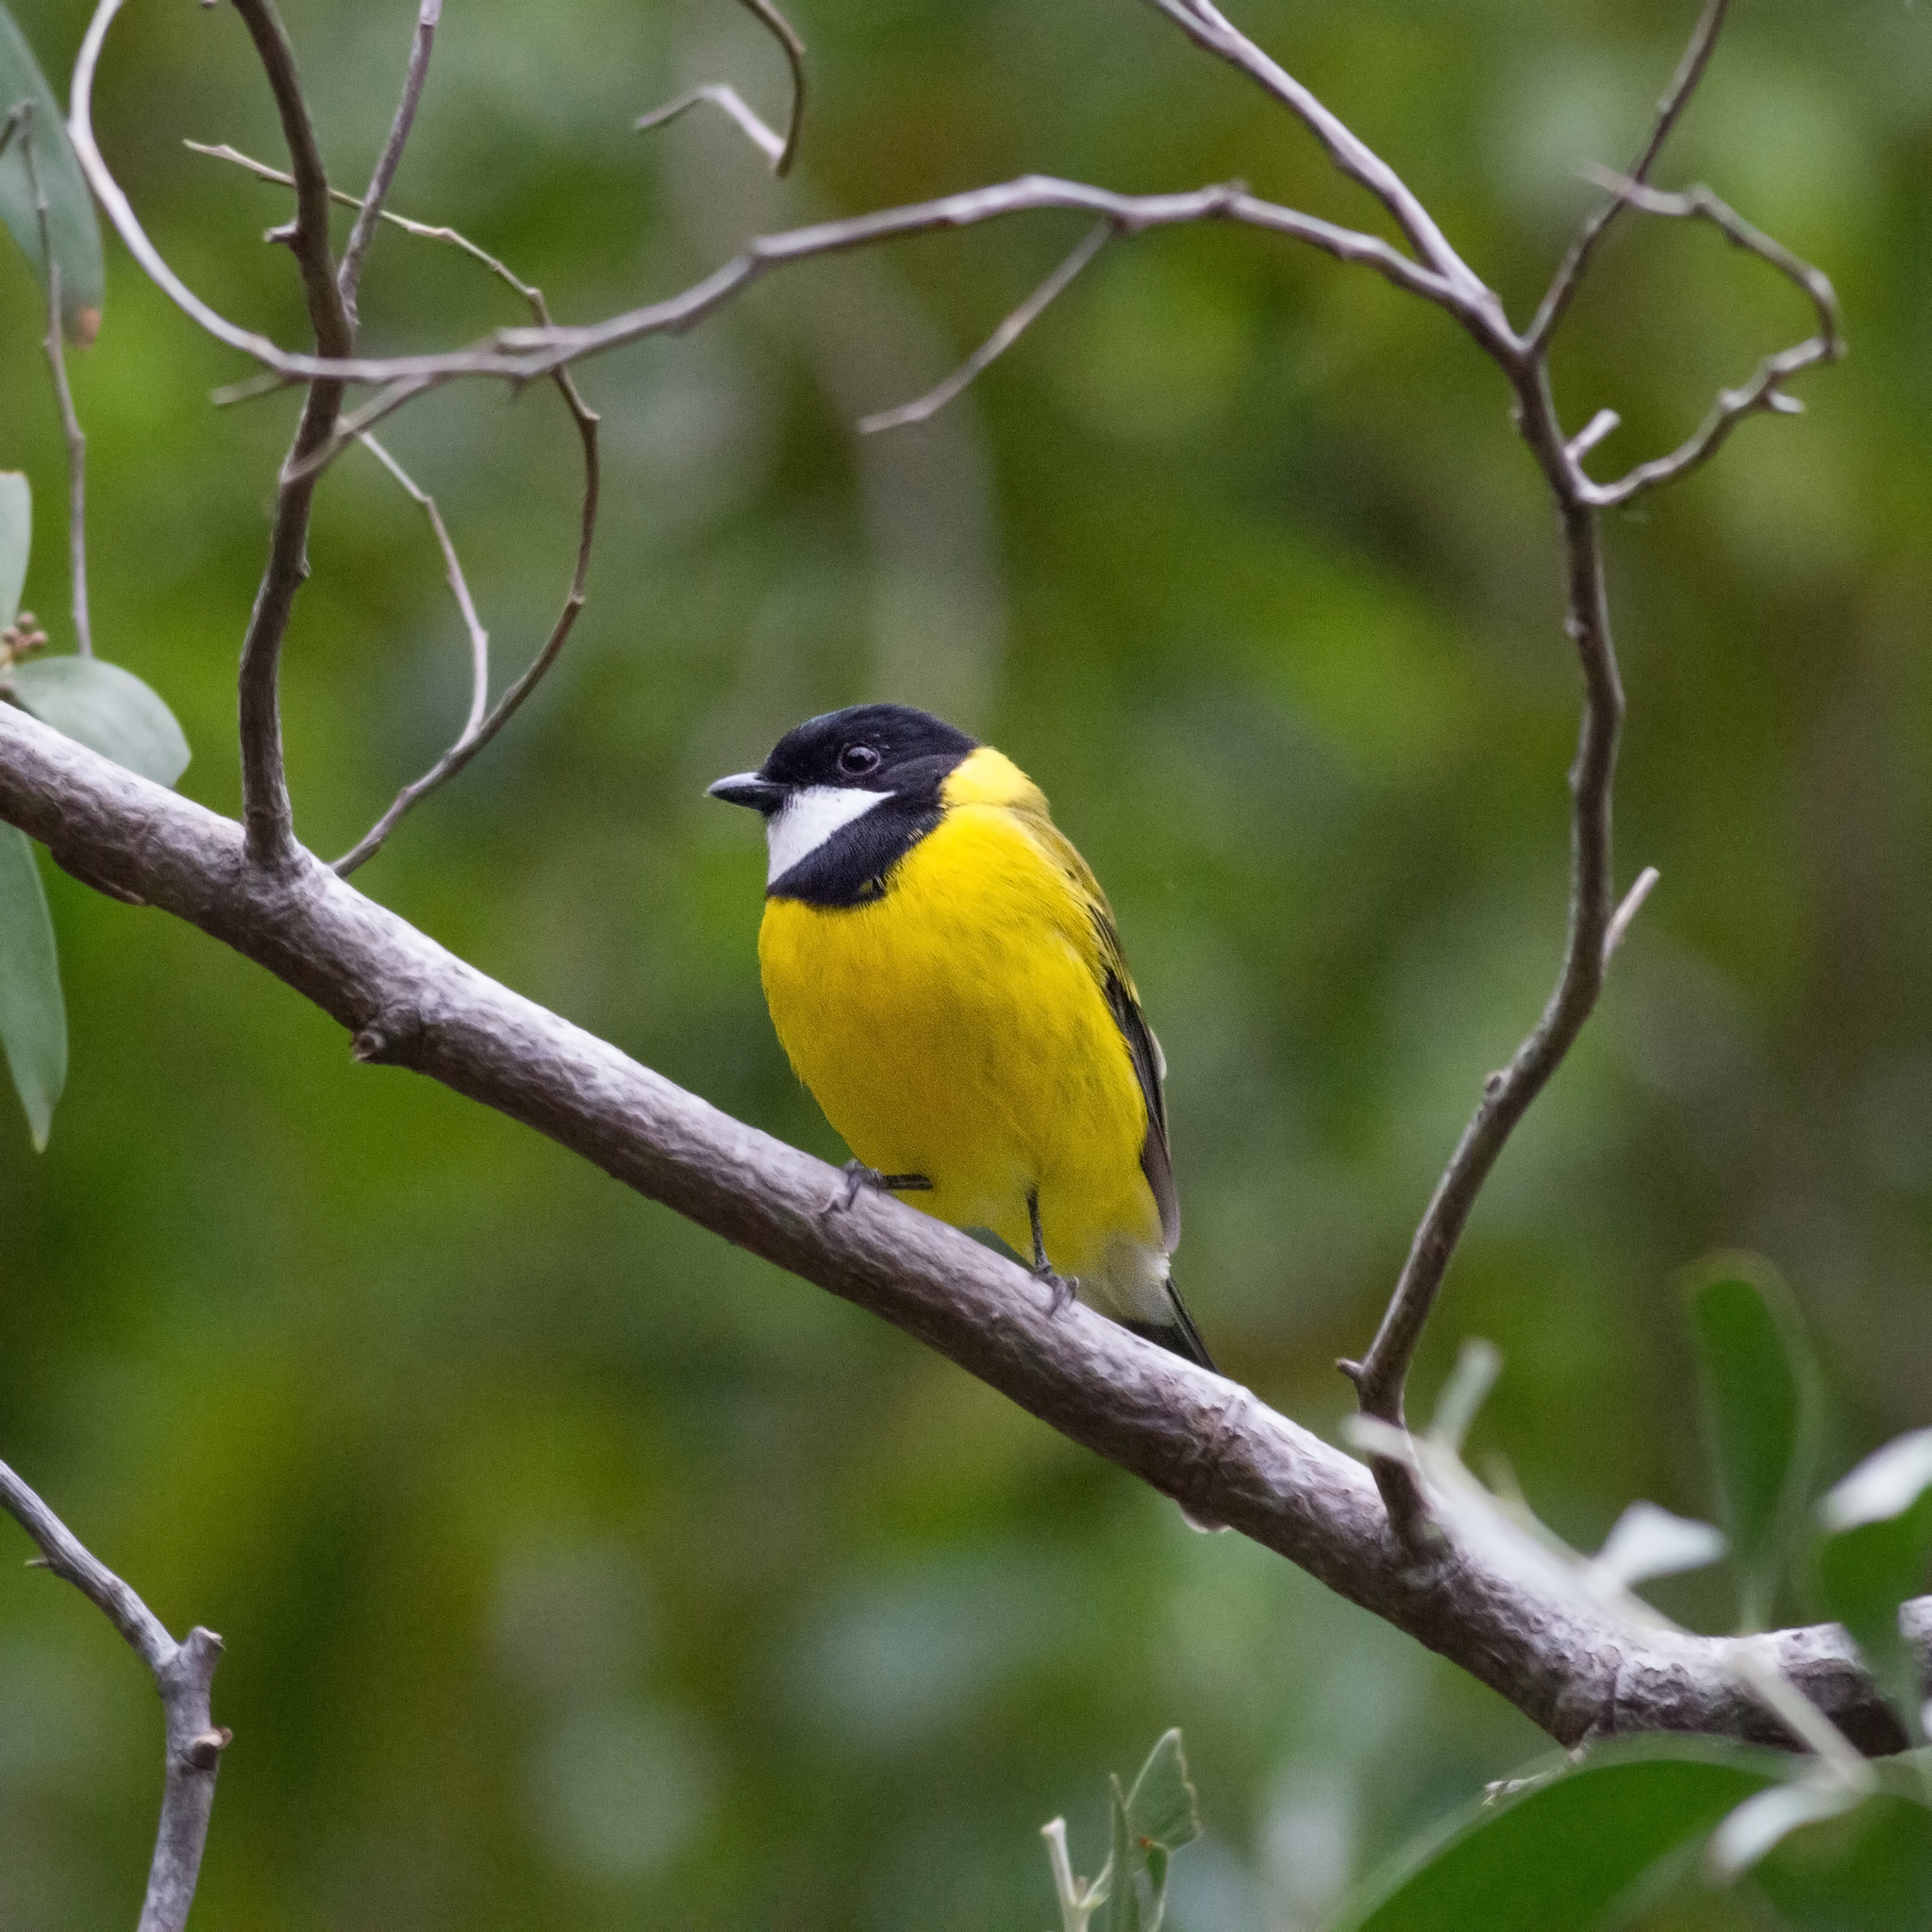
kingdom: Animalia
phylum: Chordata
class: Aves
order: Passeriformes
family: Pachycephalidae
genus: Pachycephala
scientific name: Pachycephala fuliginosa
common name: Western whistler
